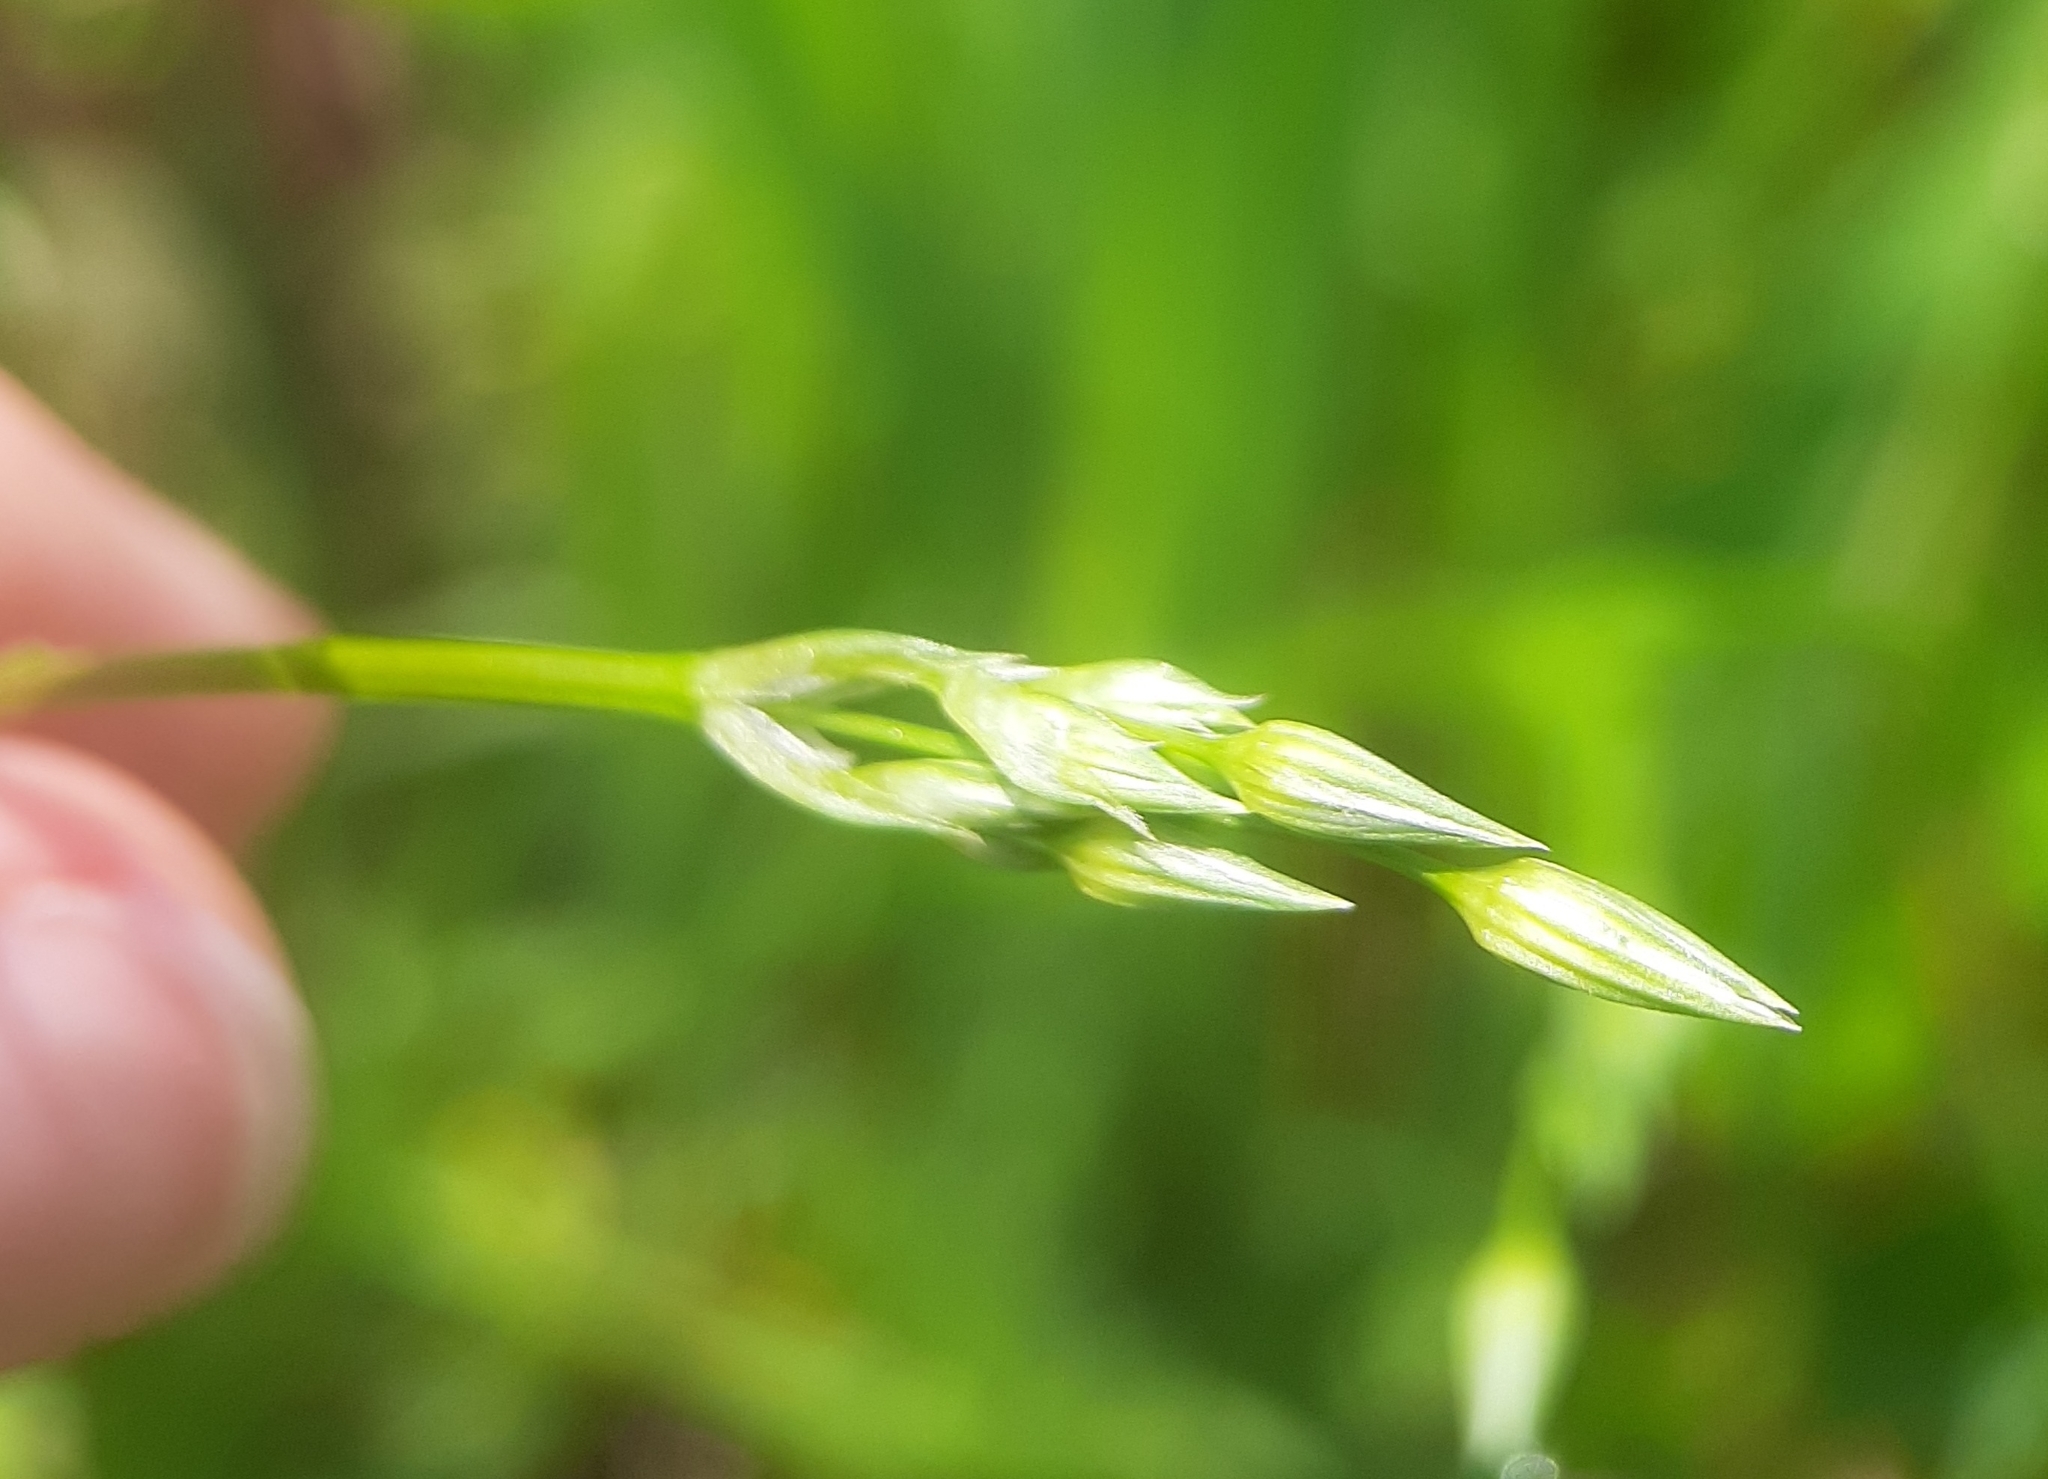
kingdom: Plantae
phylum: Tracheophyta
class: Magnoliopsida
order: Caryophyllales
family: Caryophyllaceae
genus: Stellaria
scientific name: Stellaria graminea
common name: Grass-like starwort
